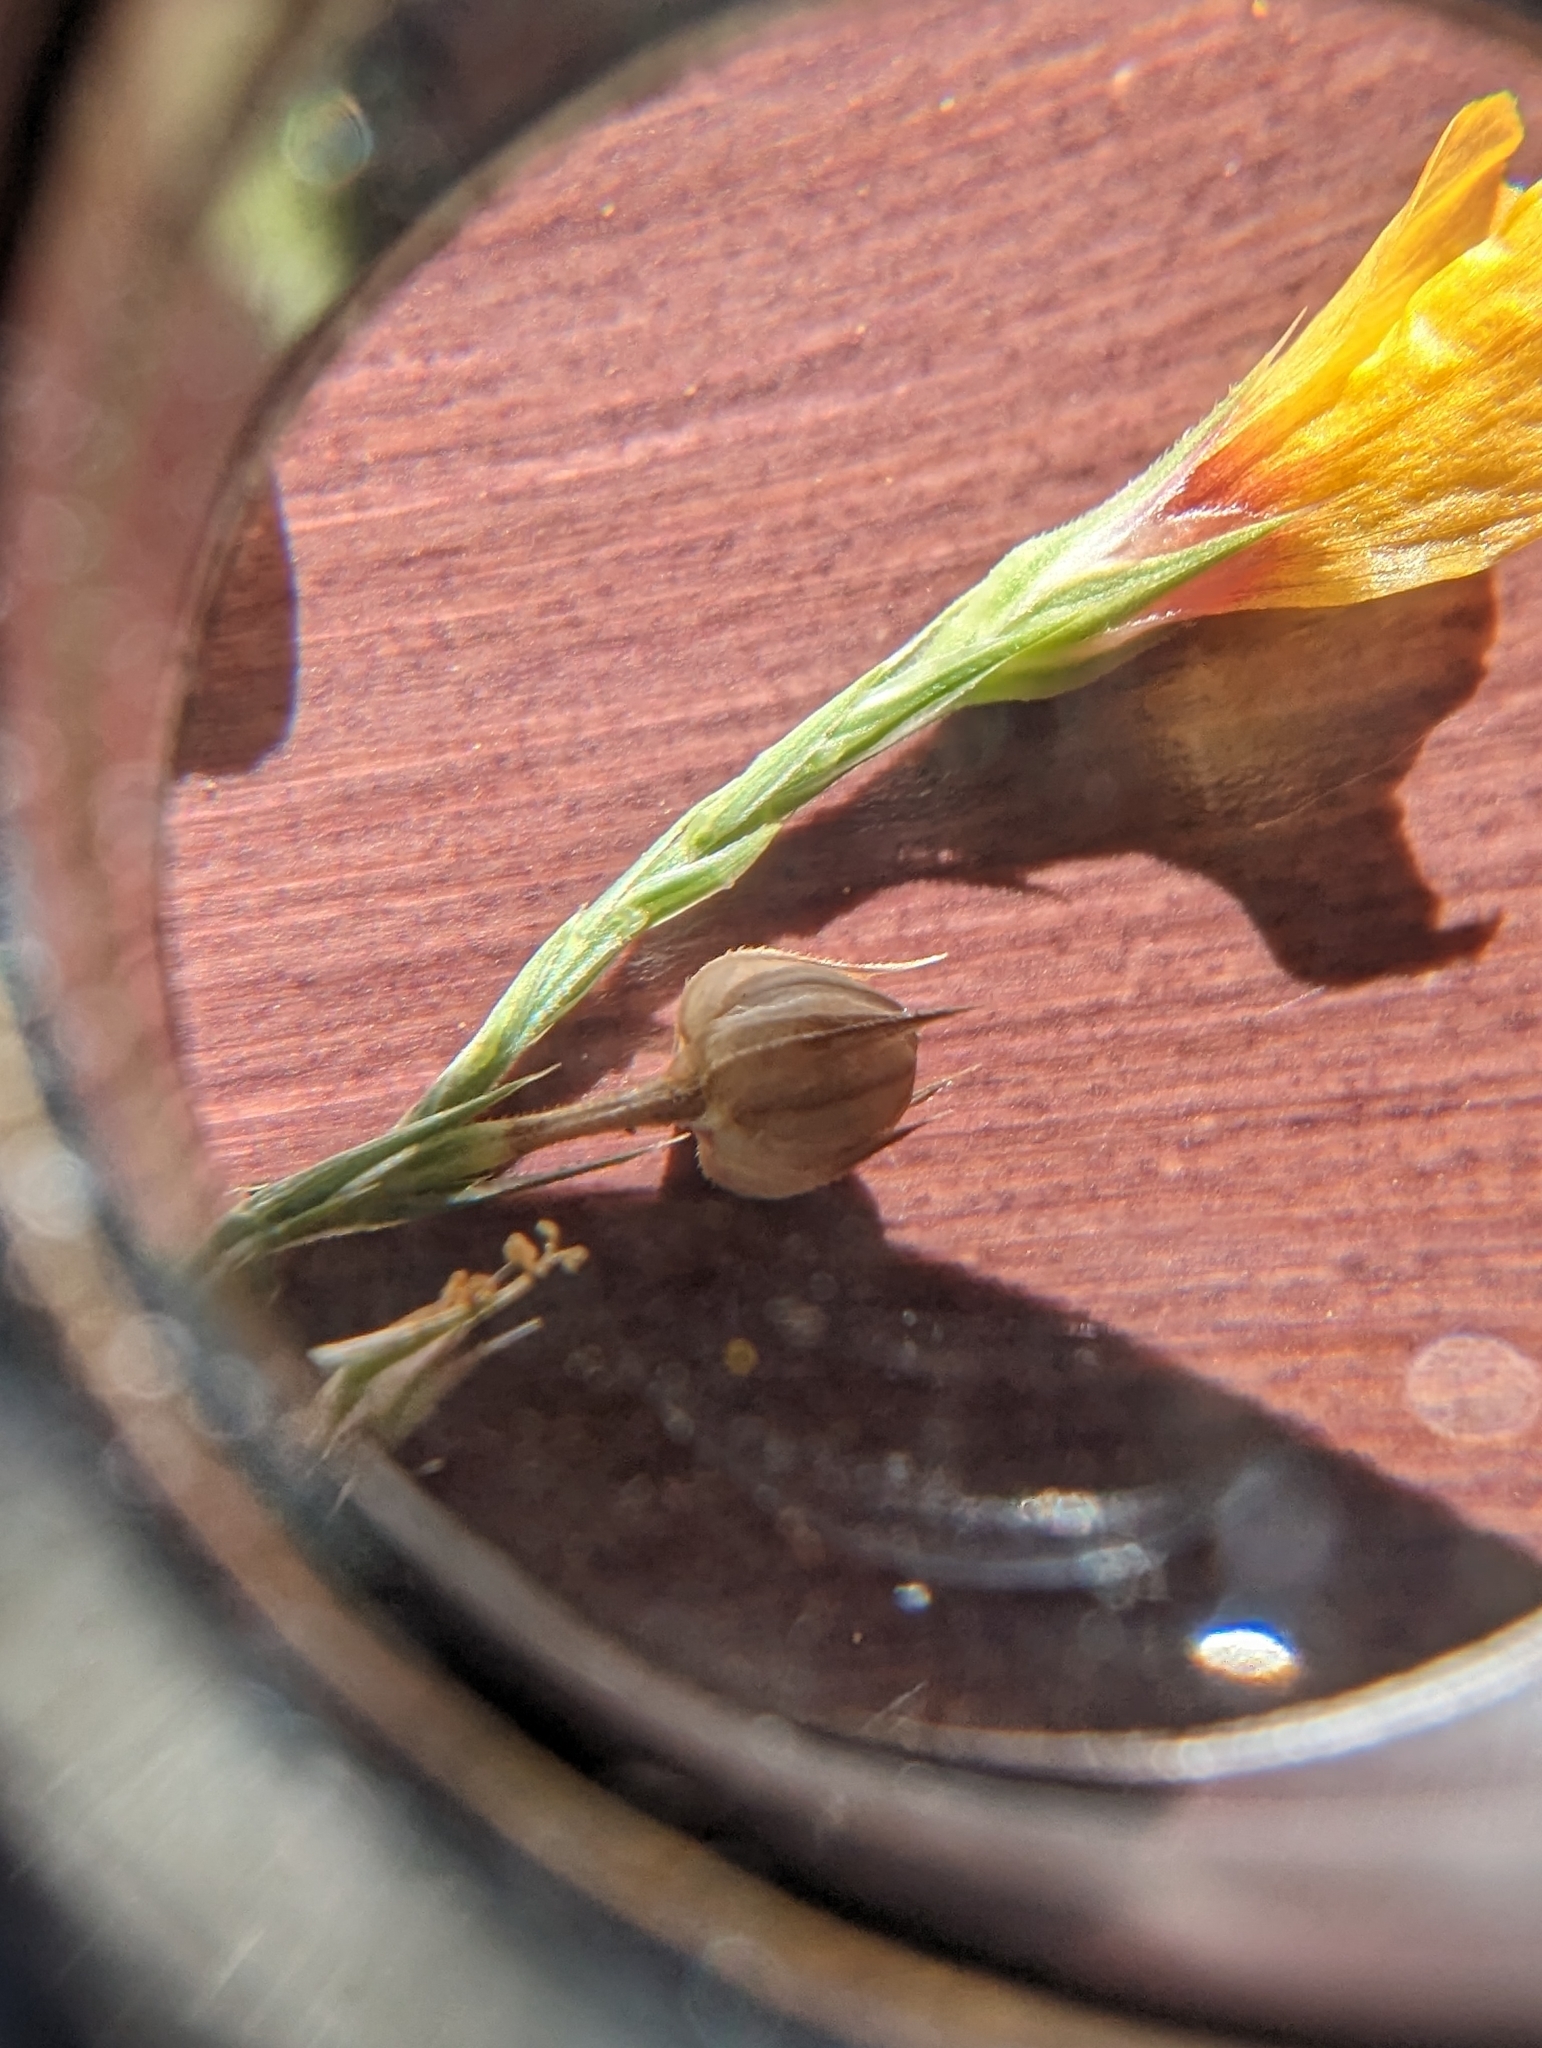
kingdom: Plantae
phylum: Tracheophyta
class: Magnoliopsida
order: Malpighiales
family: Linaceae
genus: Linum
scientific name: Linum imbricatum
